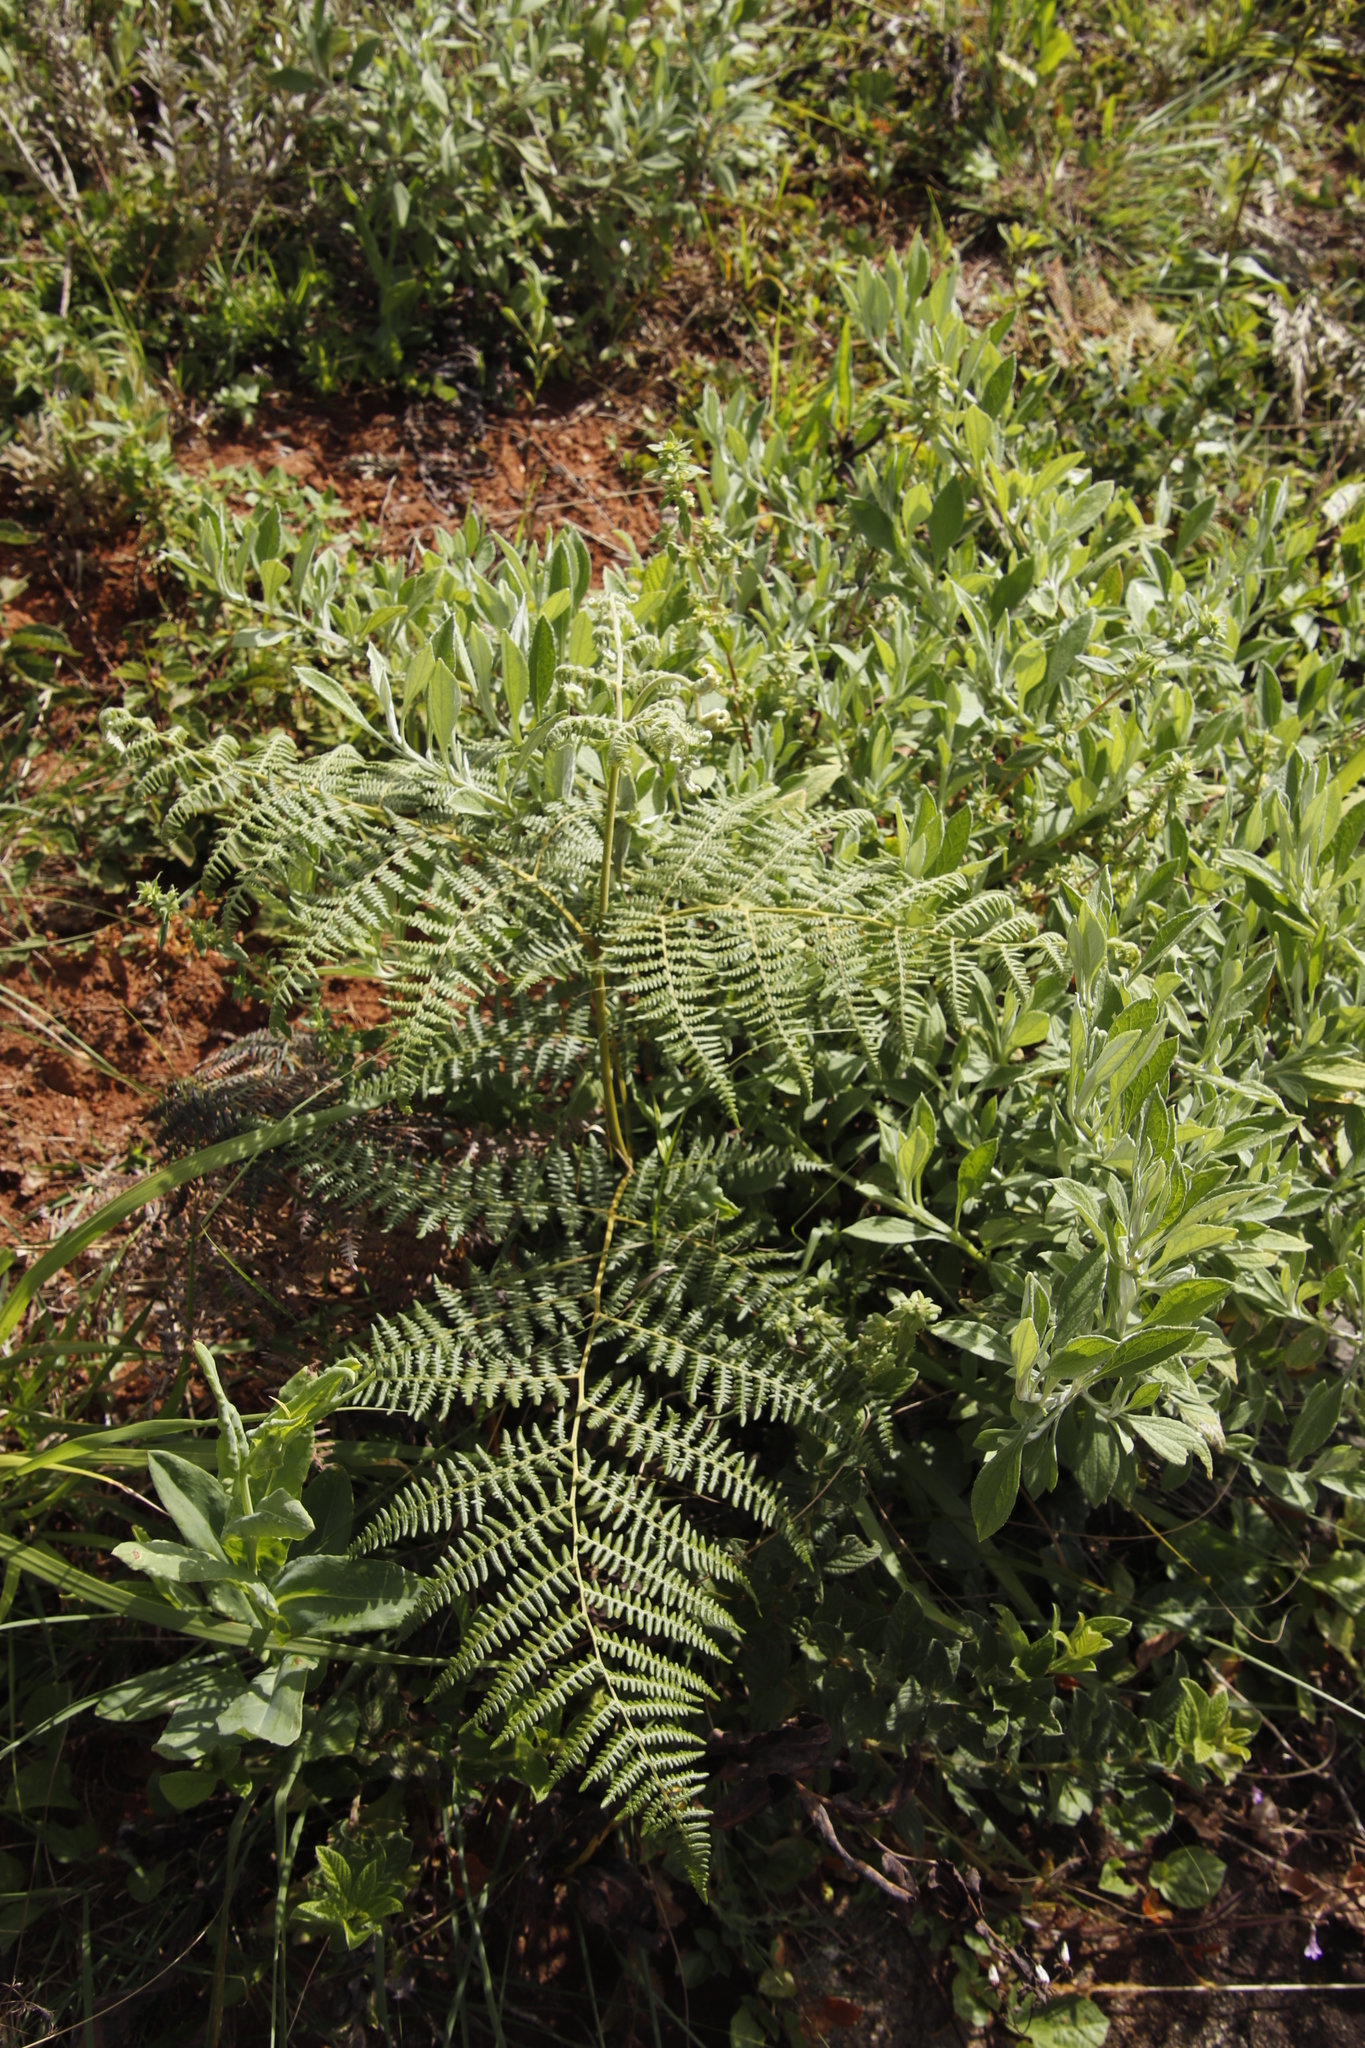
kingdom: Plantae
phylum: Tracheophyta
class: Polypodiopsida
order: Polypodiales
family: Dennstaedtiaceae
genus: Pteridium
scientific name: Pteridium aquilinum
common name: Bracken
